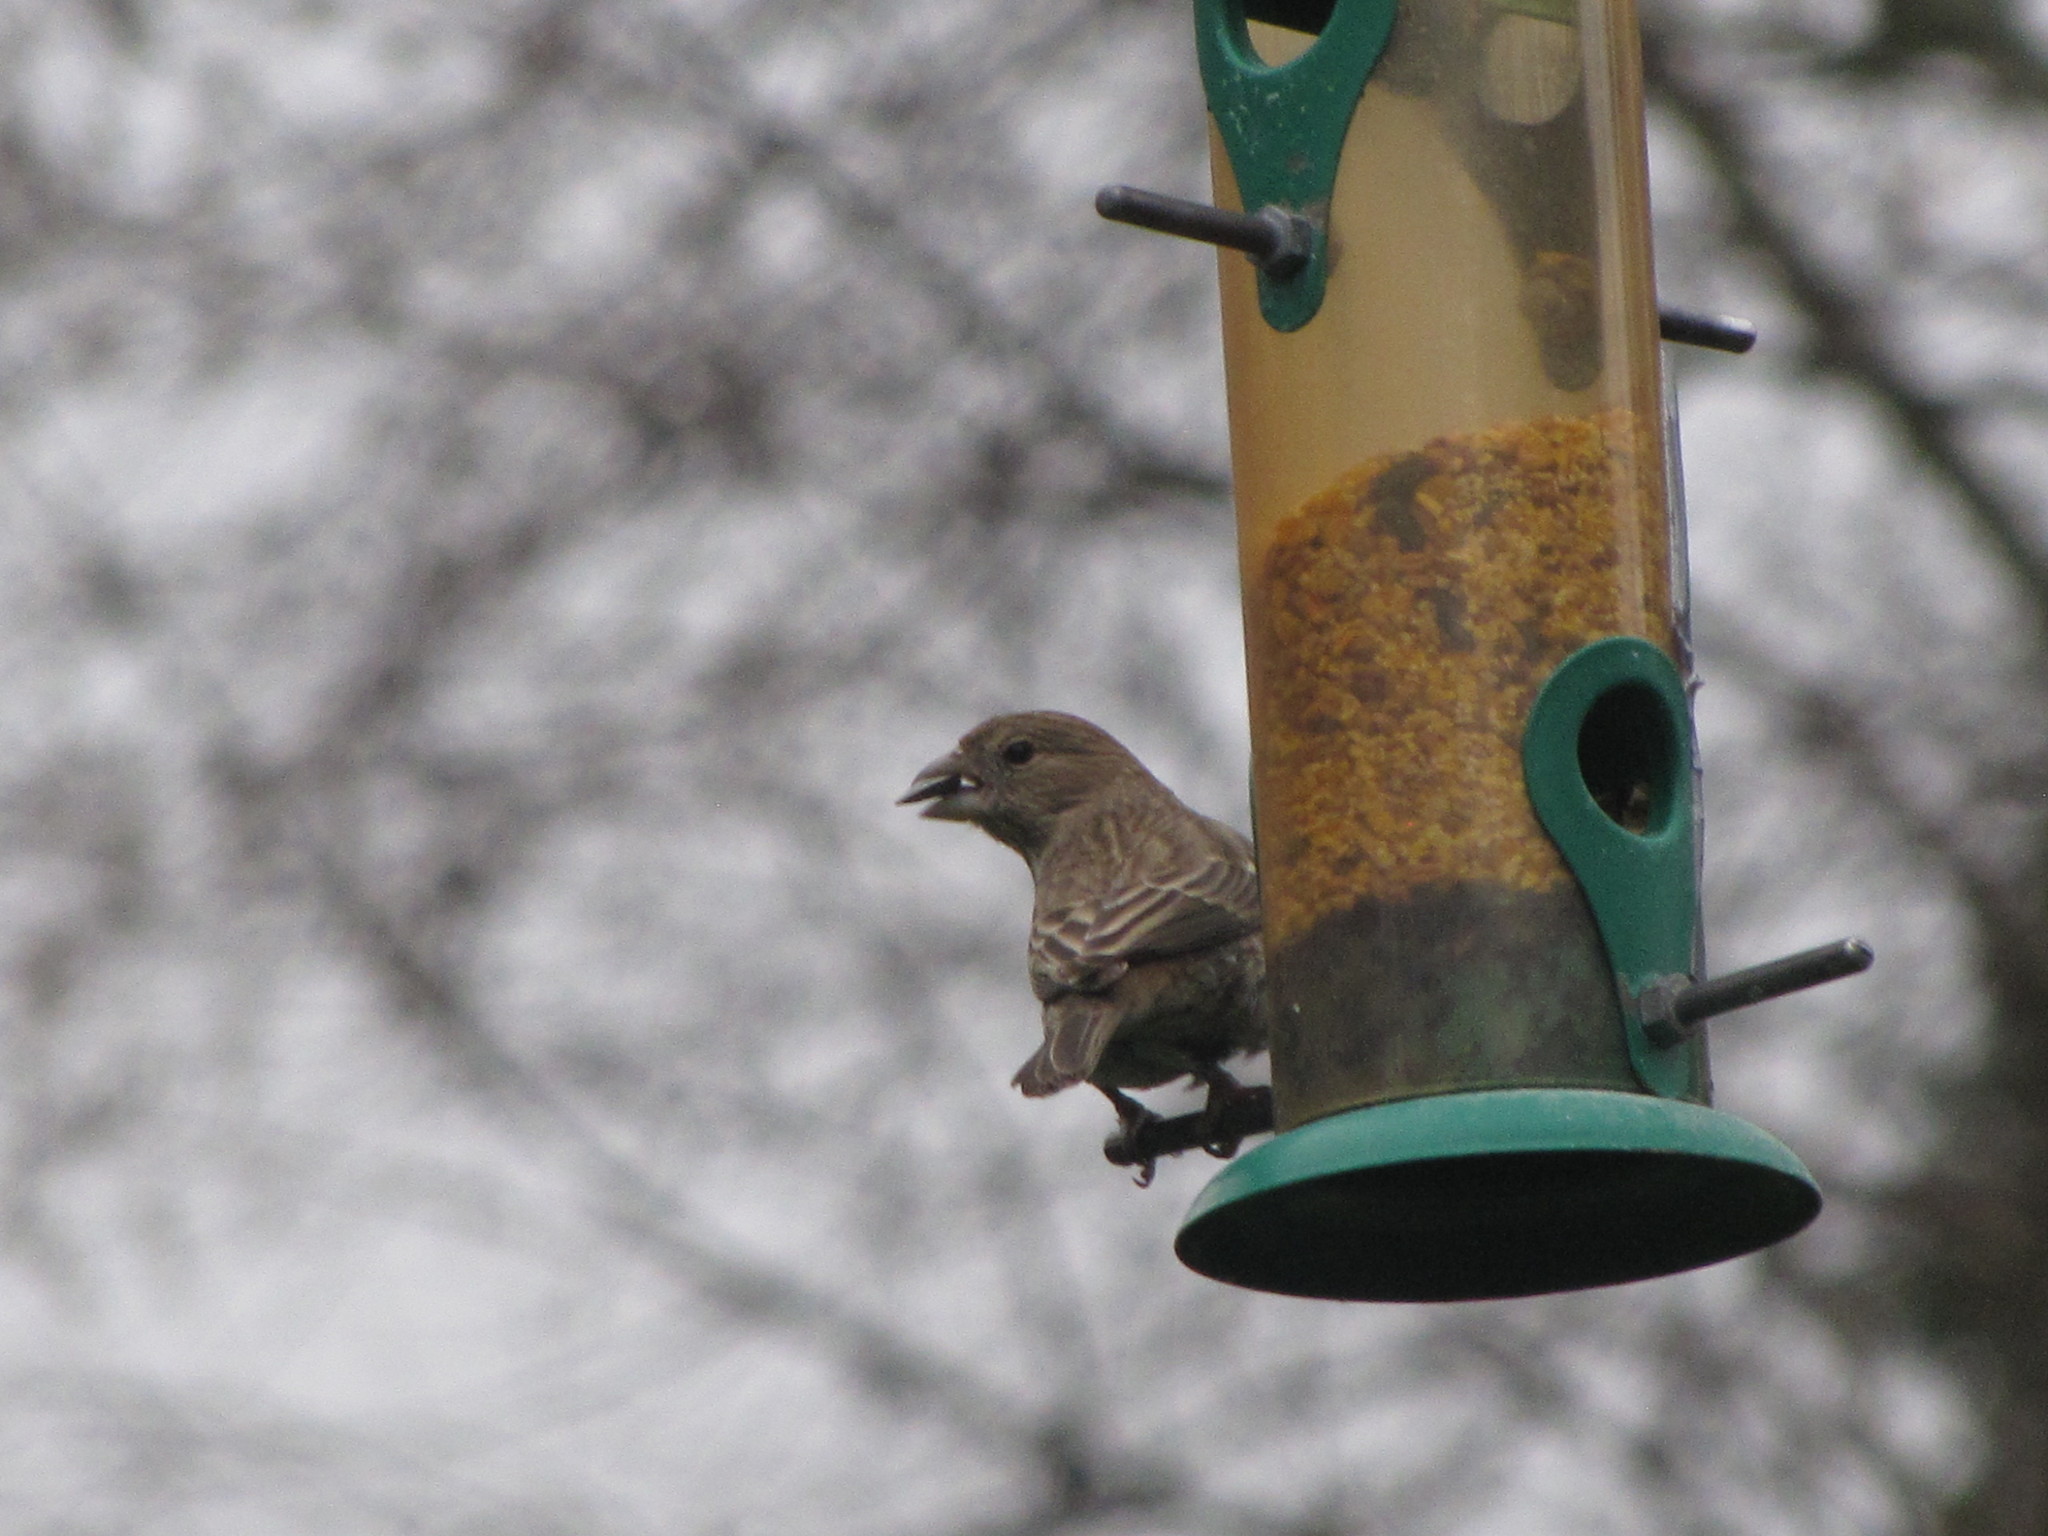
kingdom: Animalia
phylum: Chordata
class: Aves
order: Passeriformes
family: Fringillidae
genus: Haemorhous
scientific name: Haemorhous mexicanus
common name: House finch
